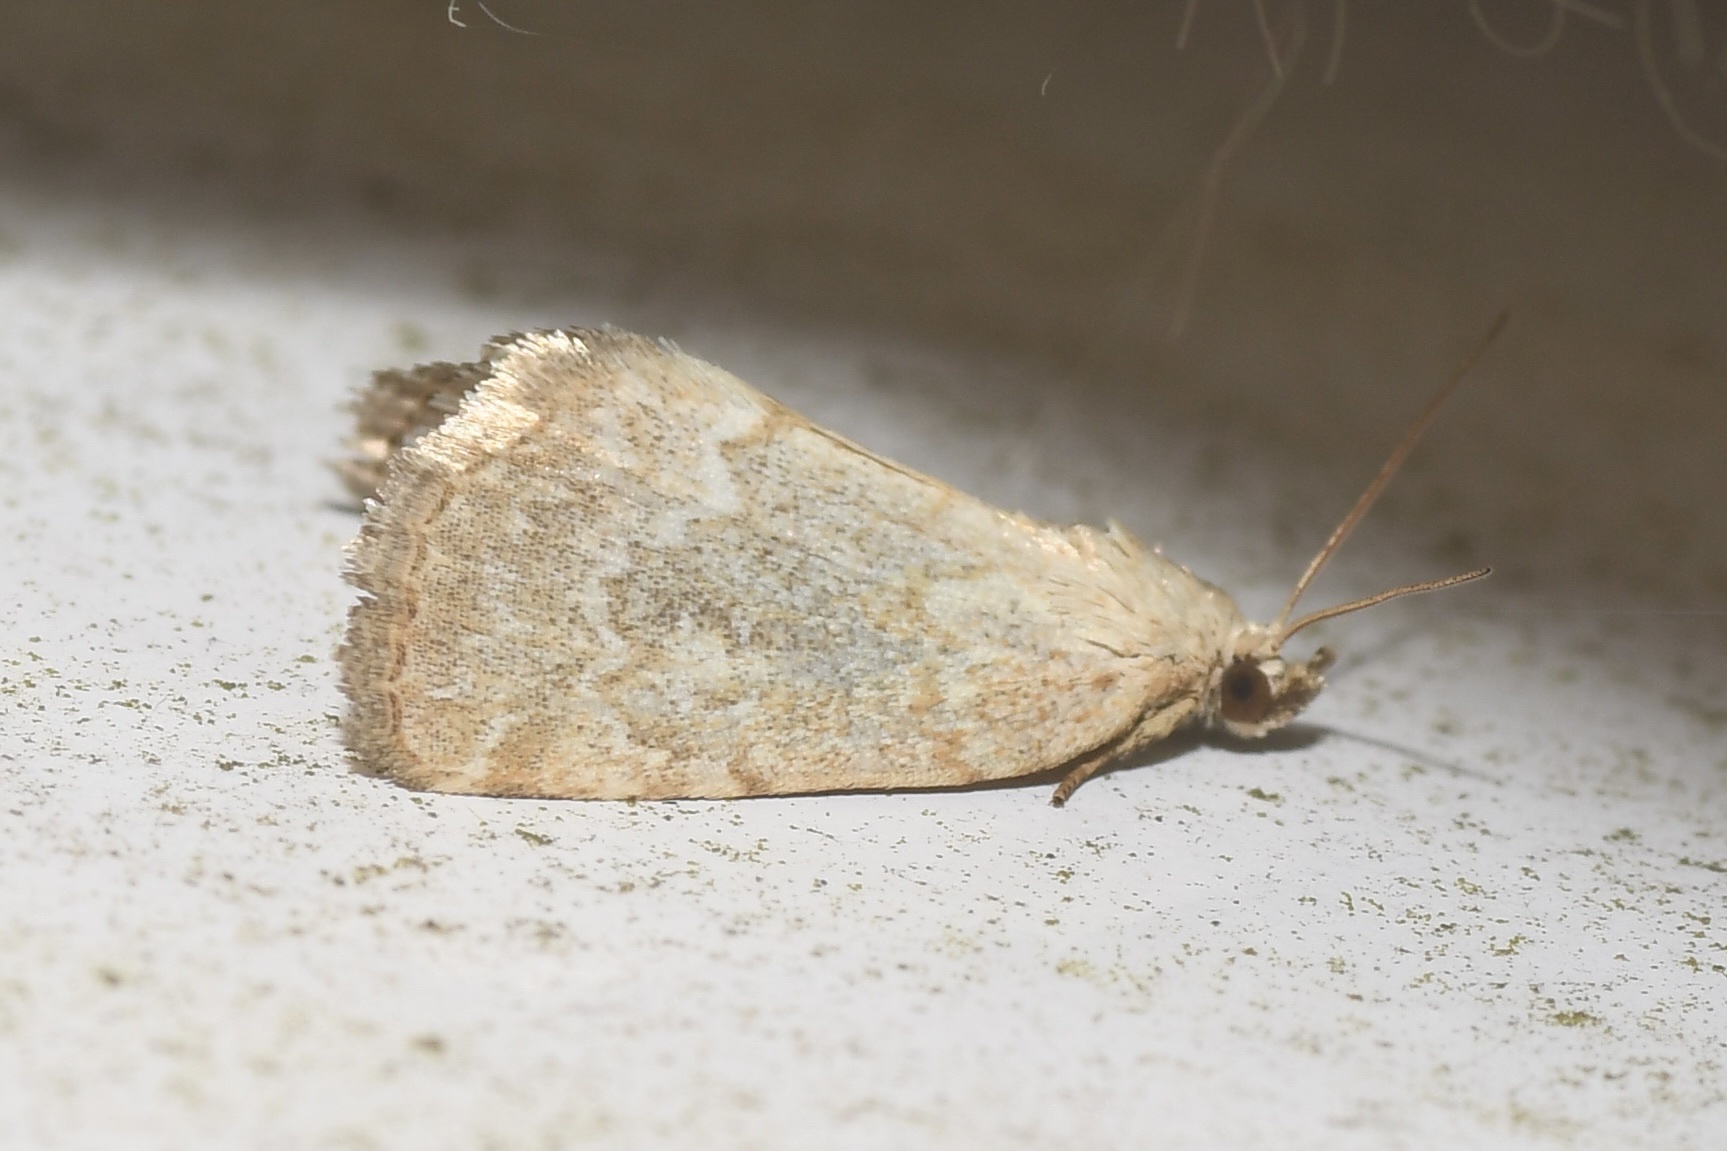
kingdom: Animalia
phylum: Arthropoda
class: Insecta
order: Lepidoptera
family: Noctuidae
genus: Protodeltote
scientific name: Protodeltote albidula
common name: Pale glyph
